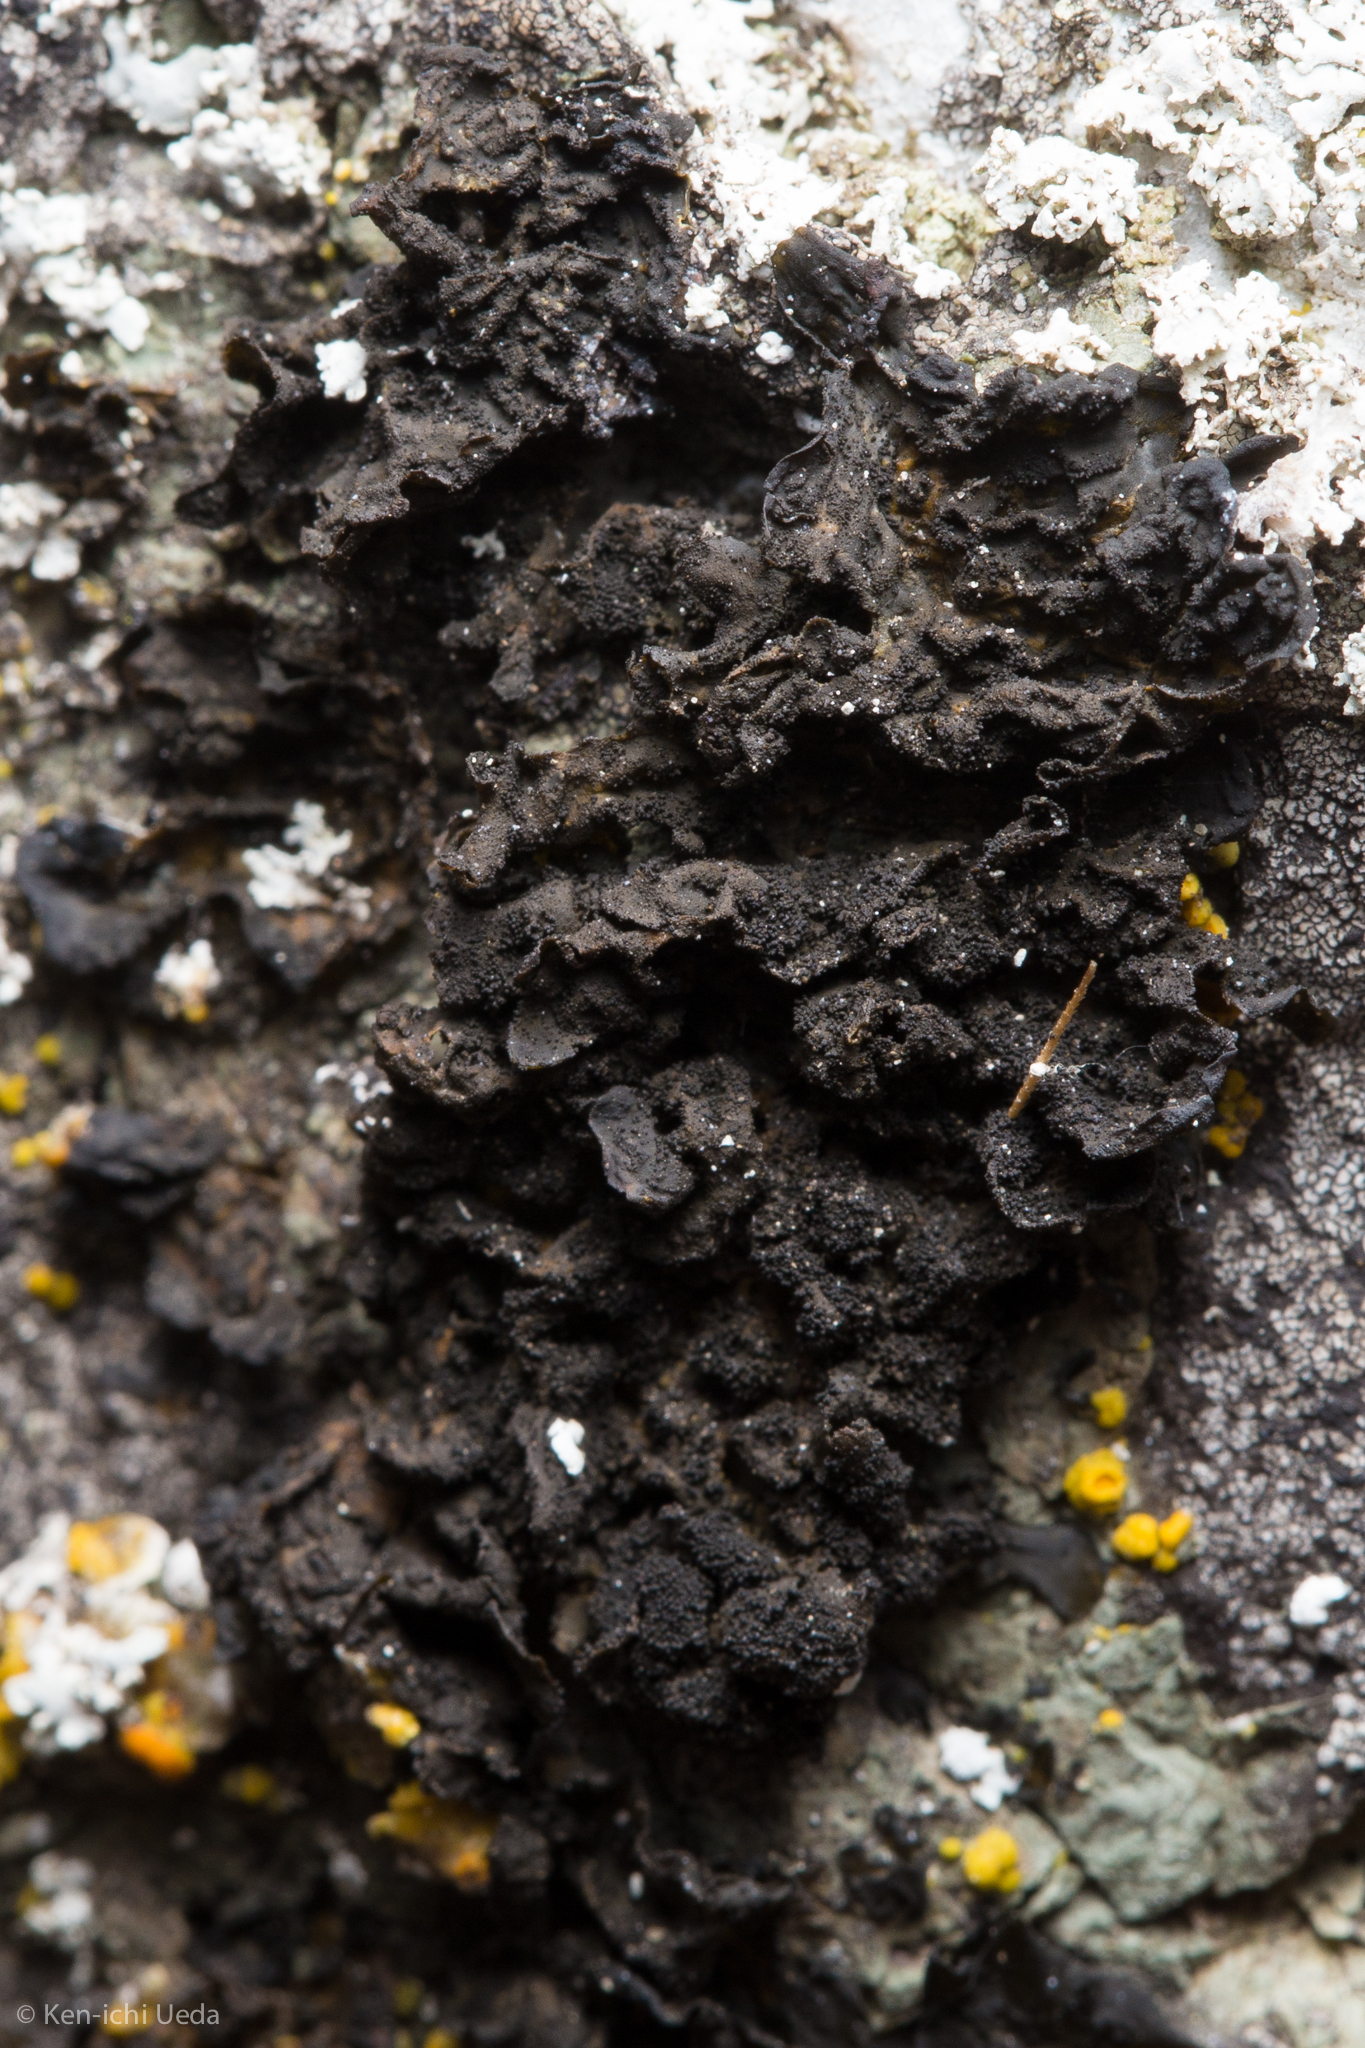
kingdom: Fungi
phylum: Ascomycota
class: Lecanoromycetes
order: Peltigerales
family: Collemataceae
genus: Collema
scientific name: Collema furfuraceum
